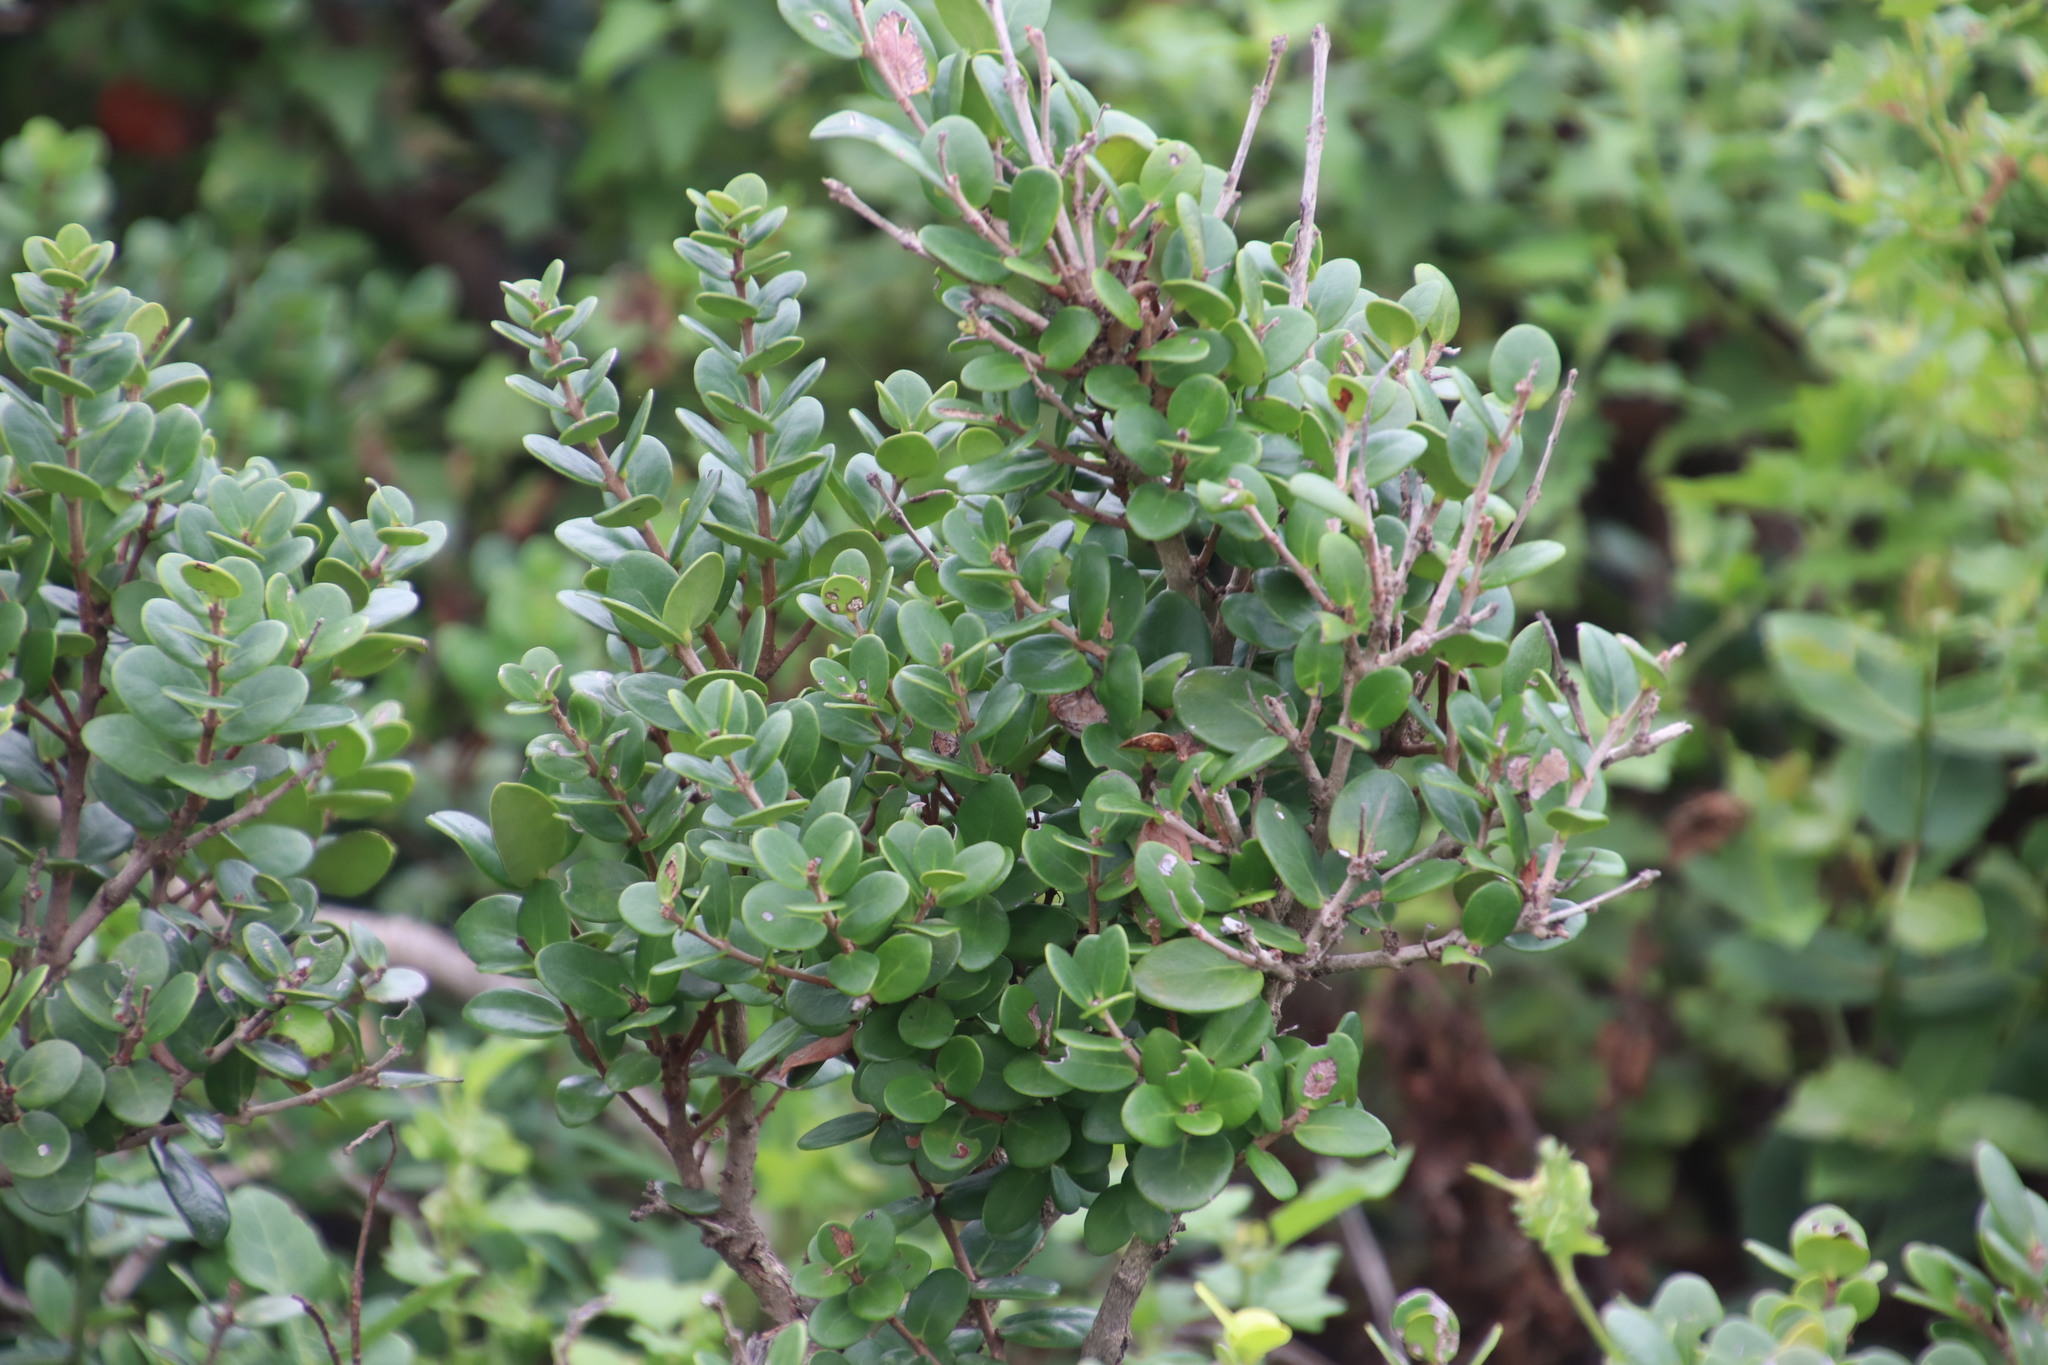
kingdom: Plantae
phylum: Tracheophyta
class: Magnoliopsida
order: Myrtales
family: Myrtaceae
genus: Eugenia
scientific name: Eugenia capensis
